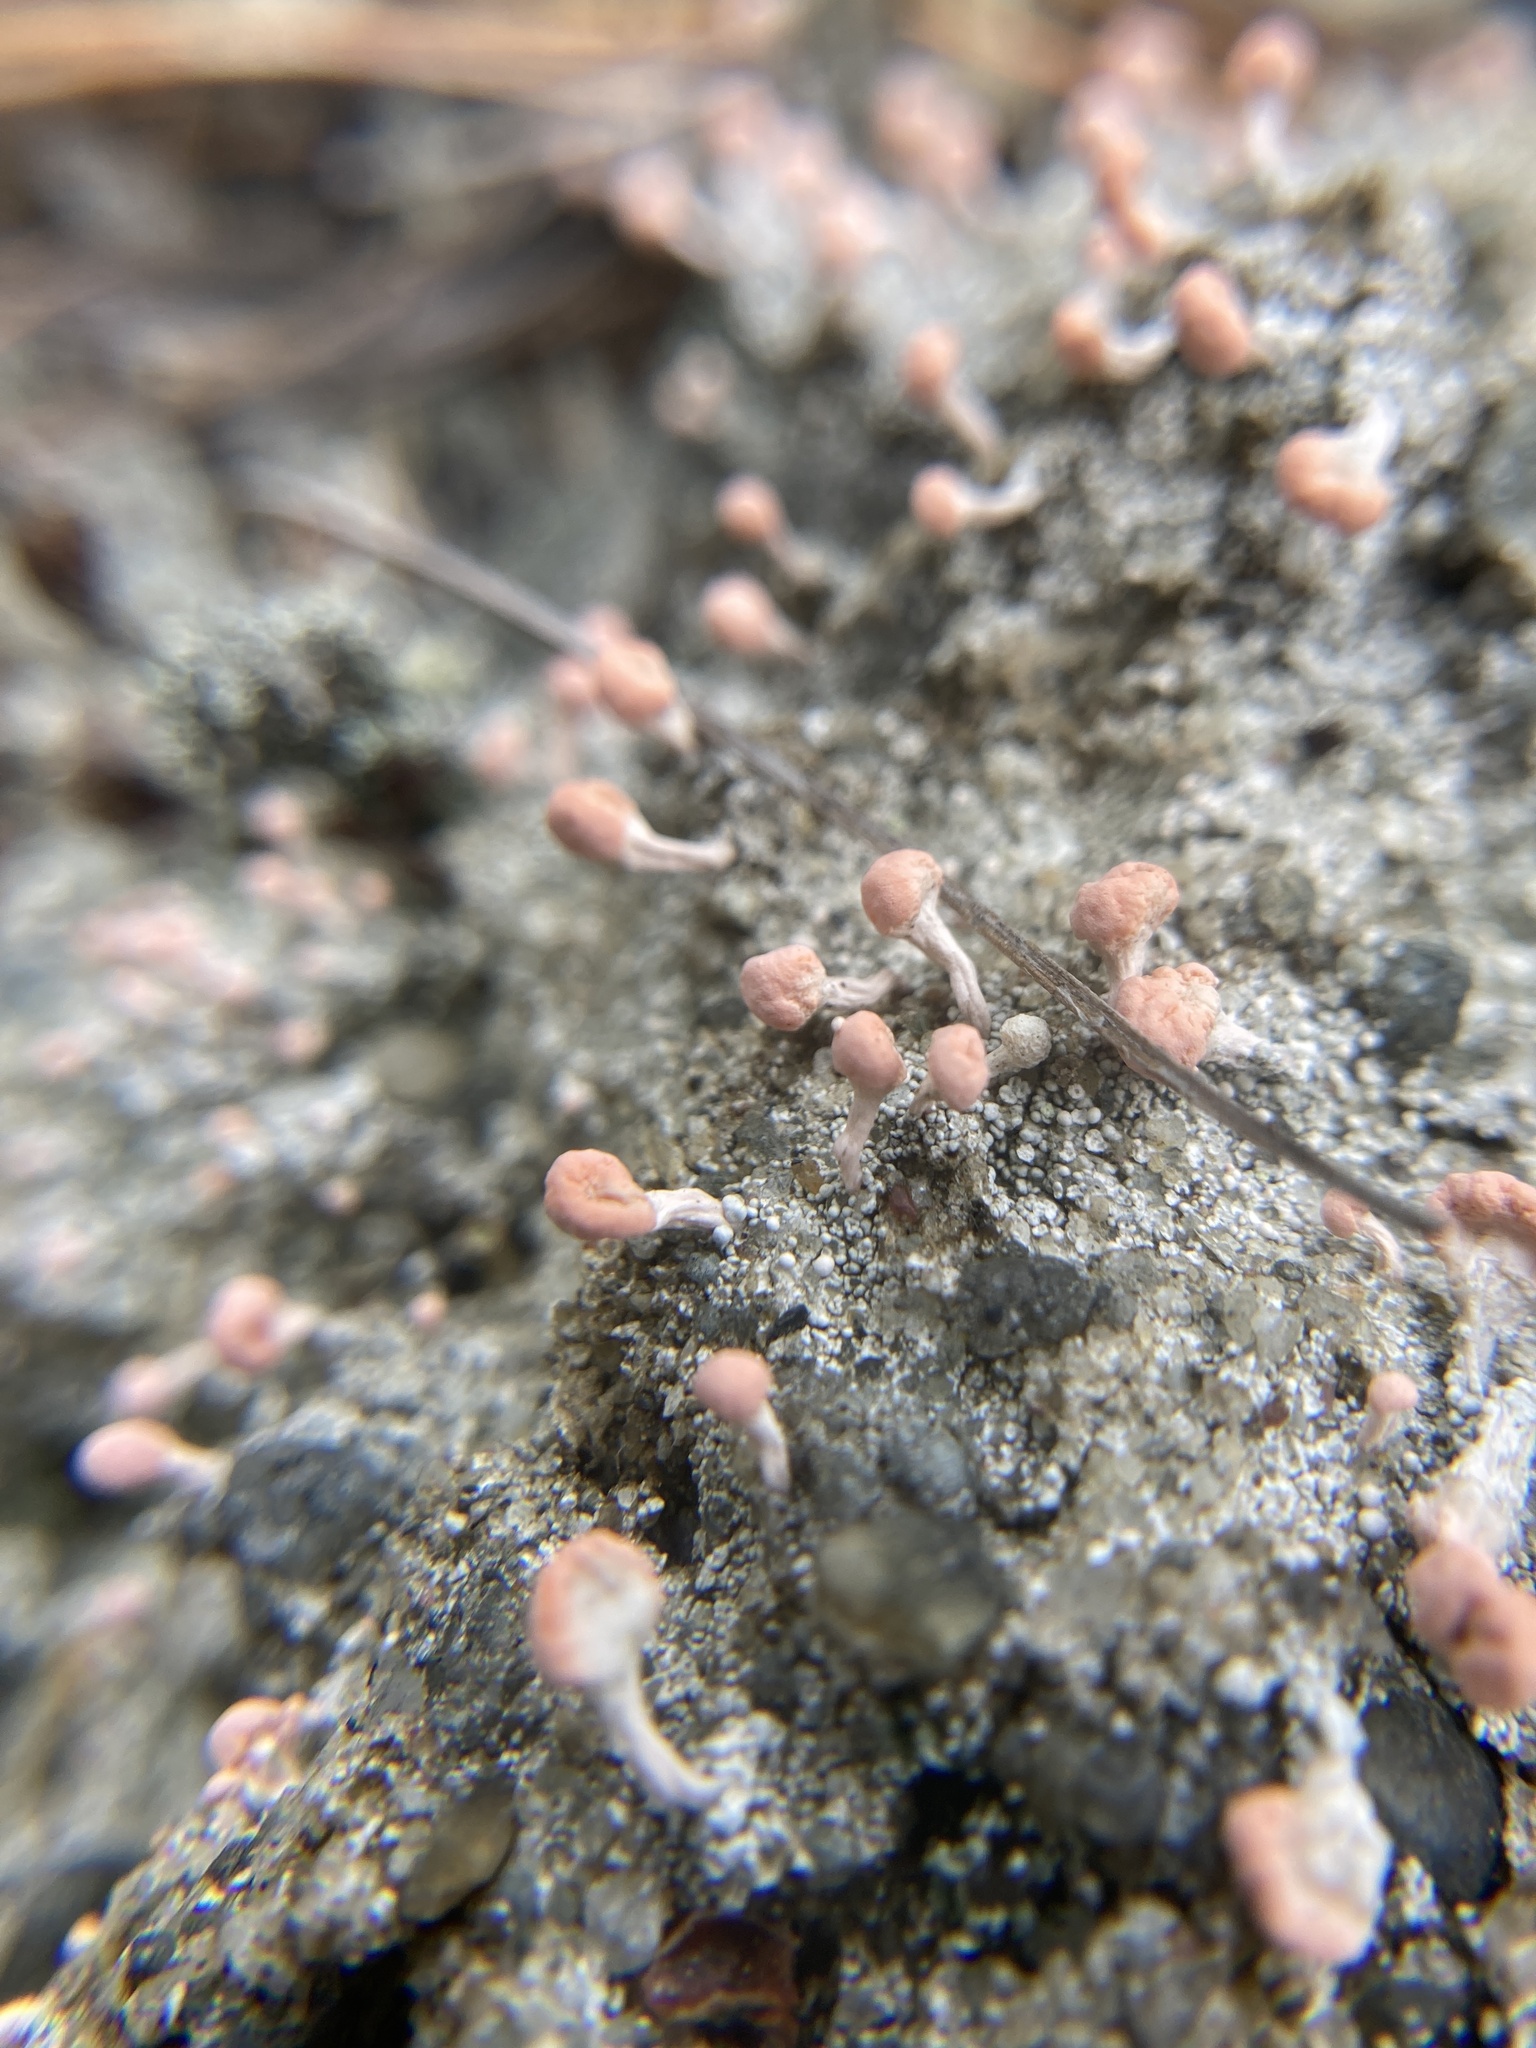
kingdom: Fungi
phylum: Ascomycota
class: Lecanoromycetes
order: Pertusariales
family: Icmadophilaceae
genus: Dibaeis
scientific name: Dibaeis baeomyces
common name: Pink earth lichen
